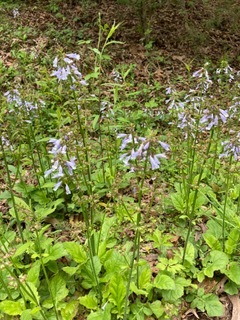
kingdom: Plantae
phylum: Tracheophyta
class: Magnoliopsida
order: Lamiales
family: Lamiaceae
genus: Salvia
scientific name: Salvia lyrata
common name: Cancerweed
